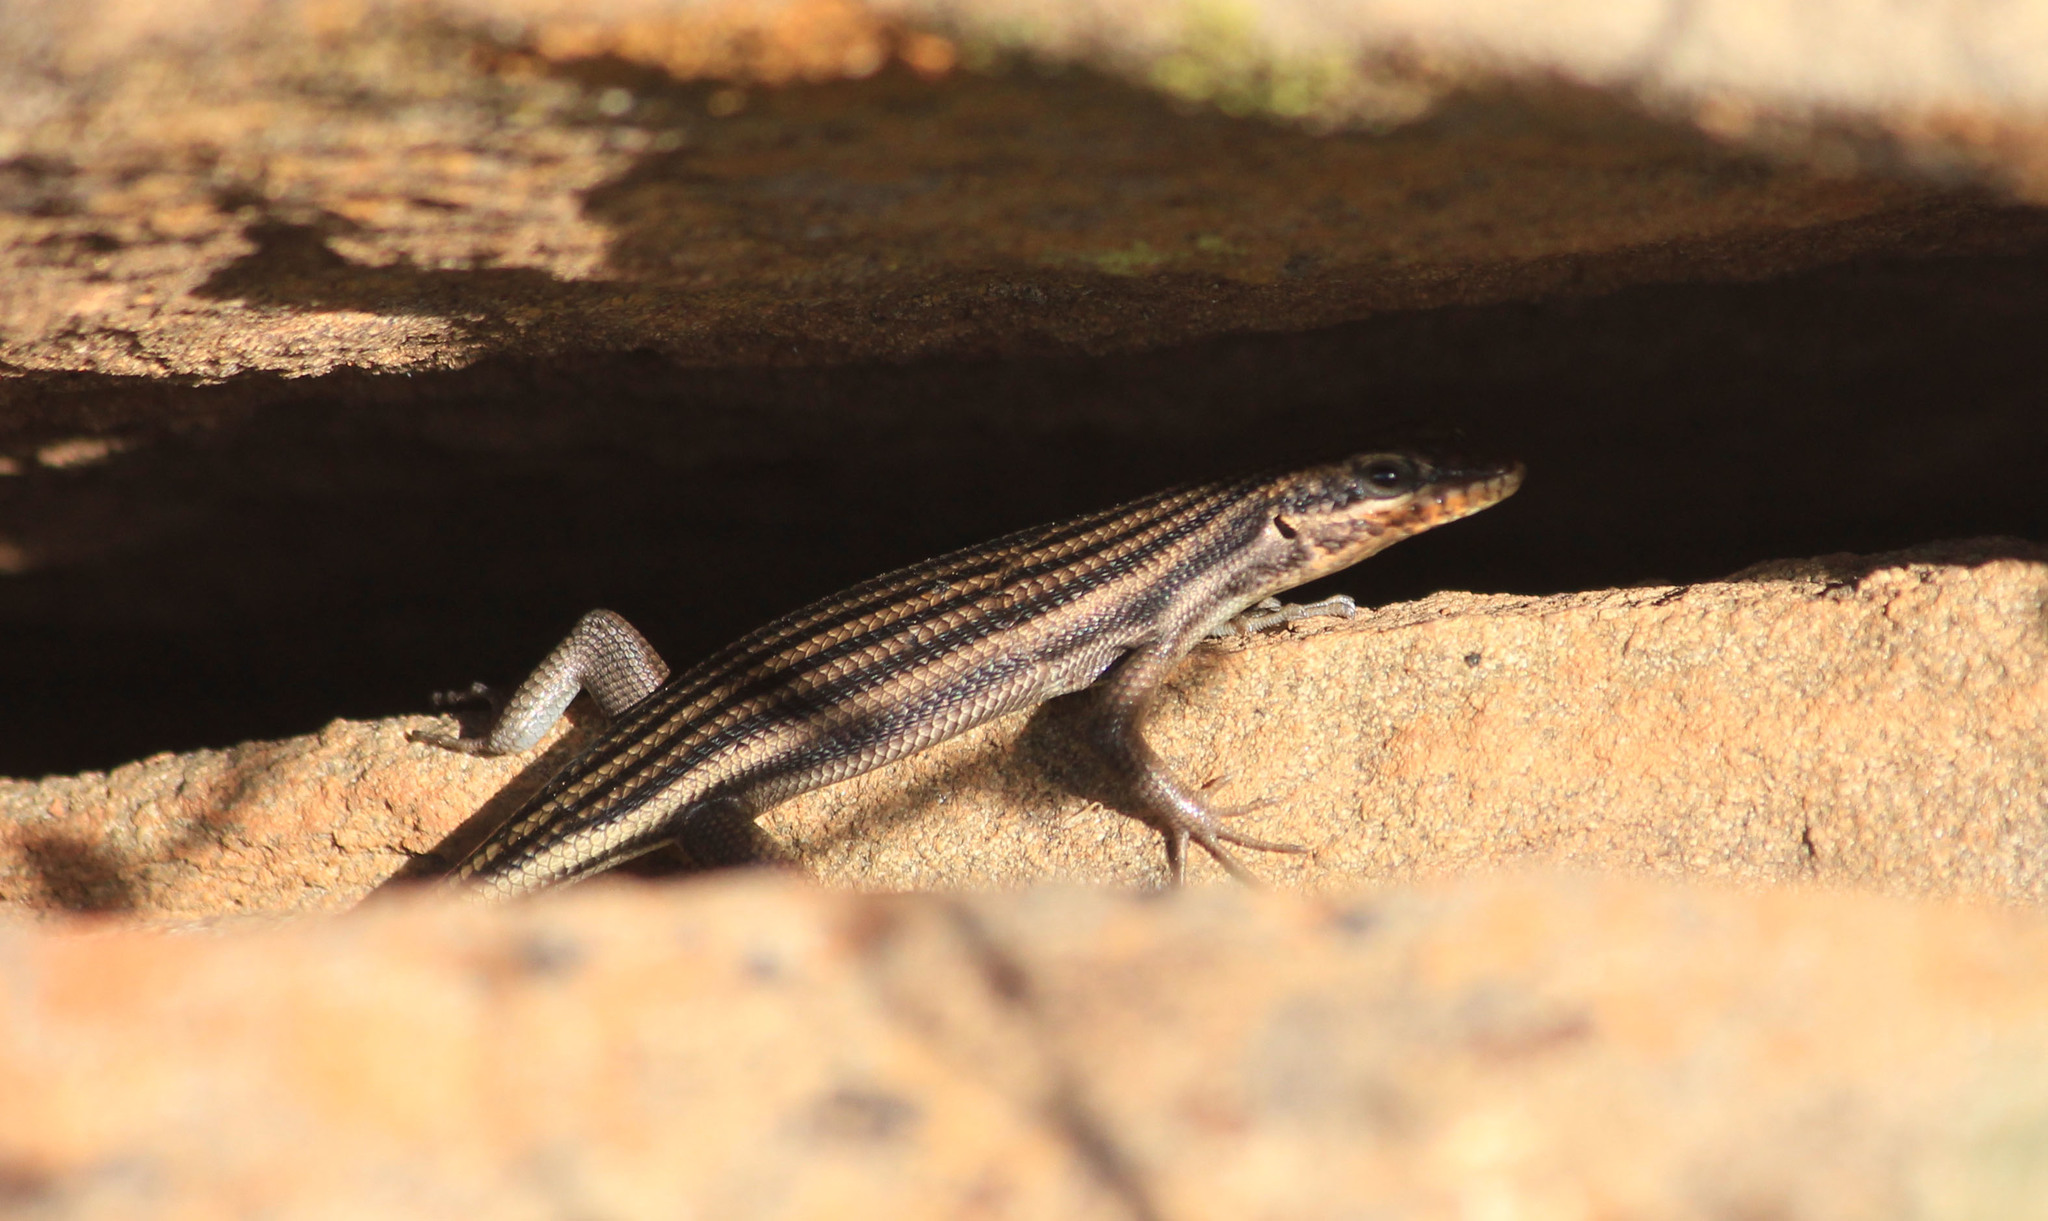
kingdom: Animalia
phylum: Chordata
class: Squamata
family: Scincidae
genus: Trachylepis
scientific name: Trachylepis sulcata
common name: Western rock skink
